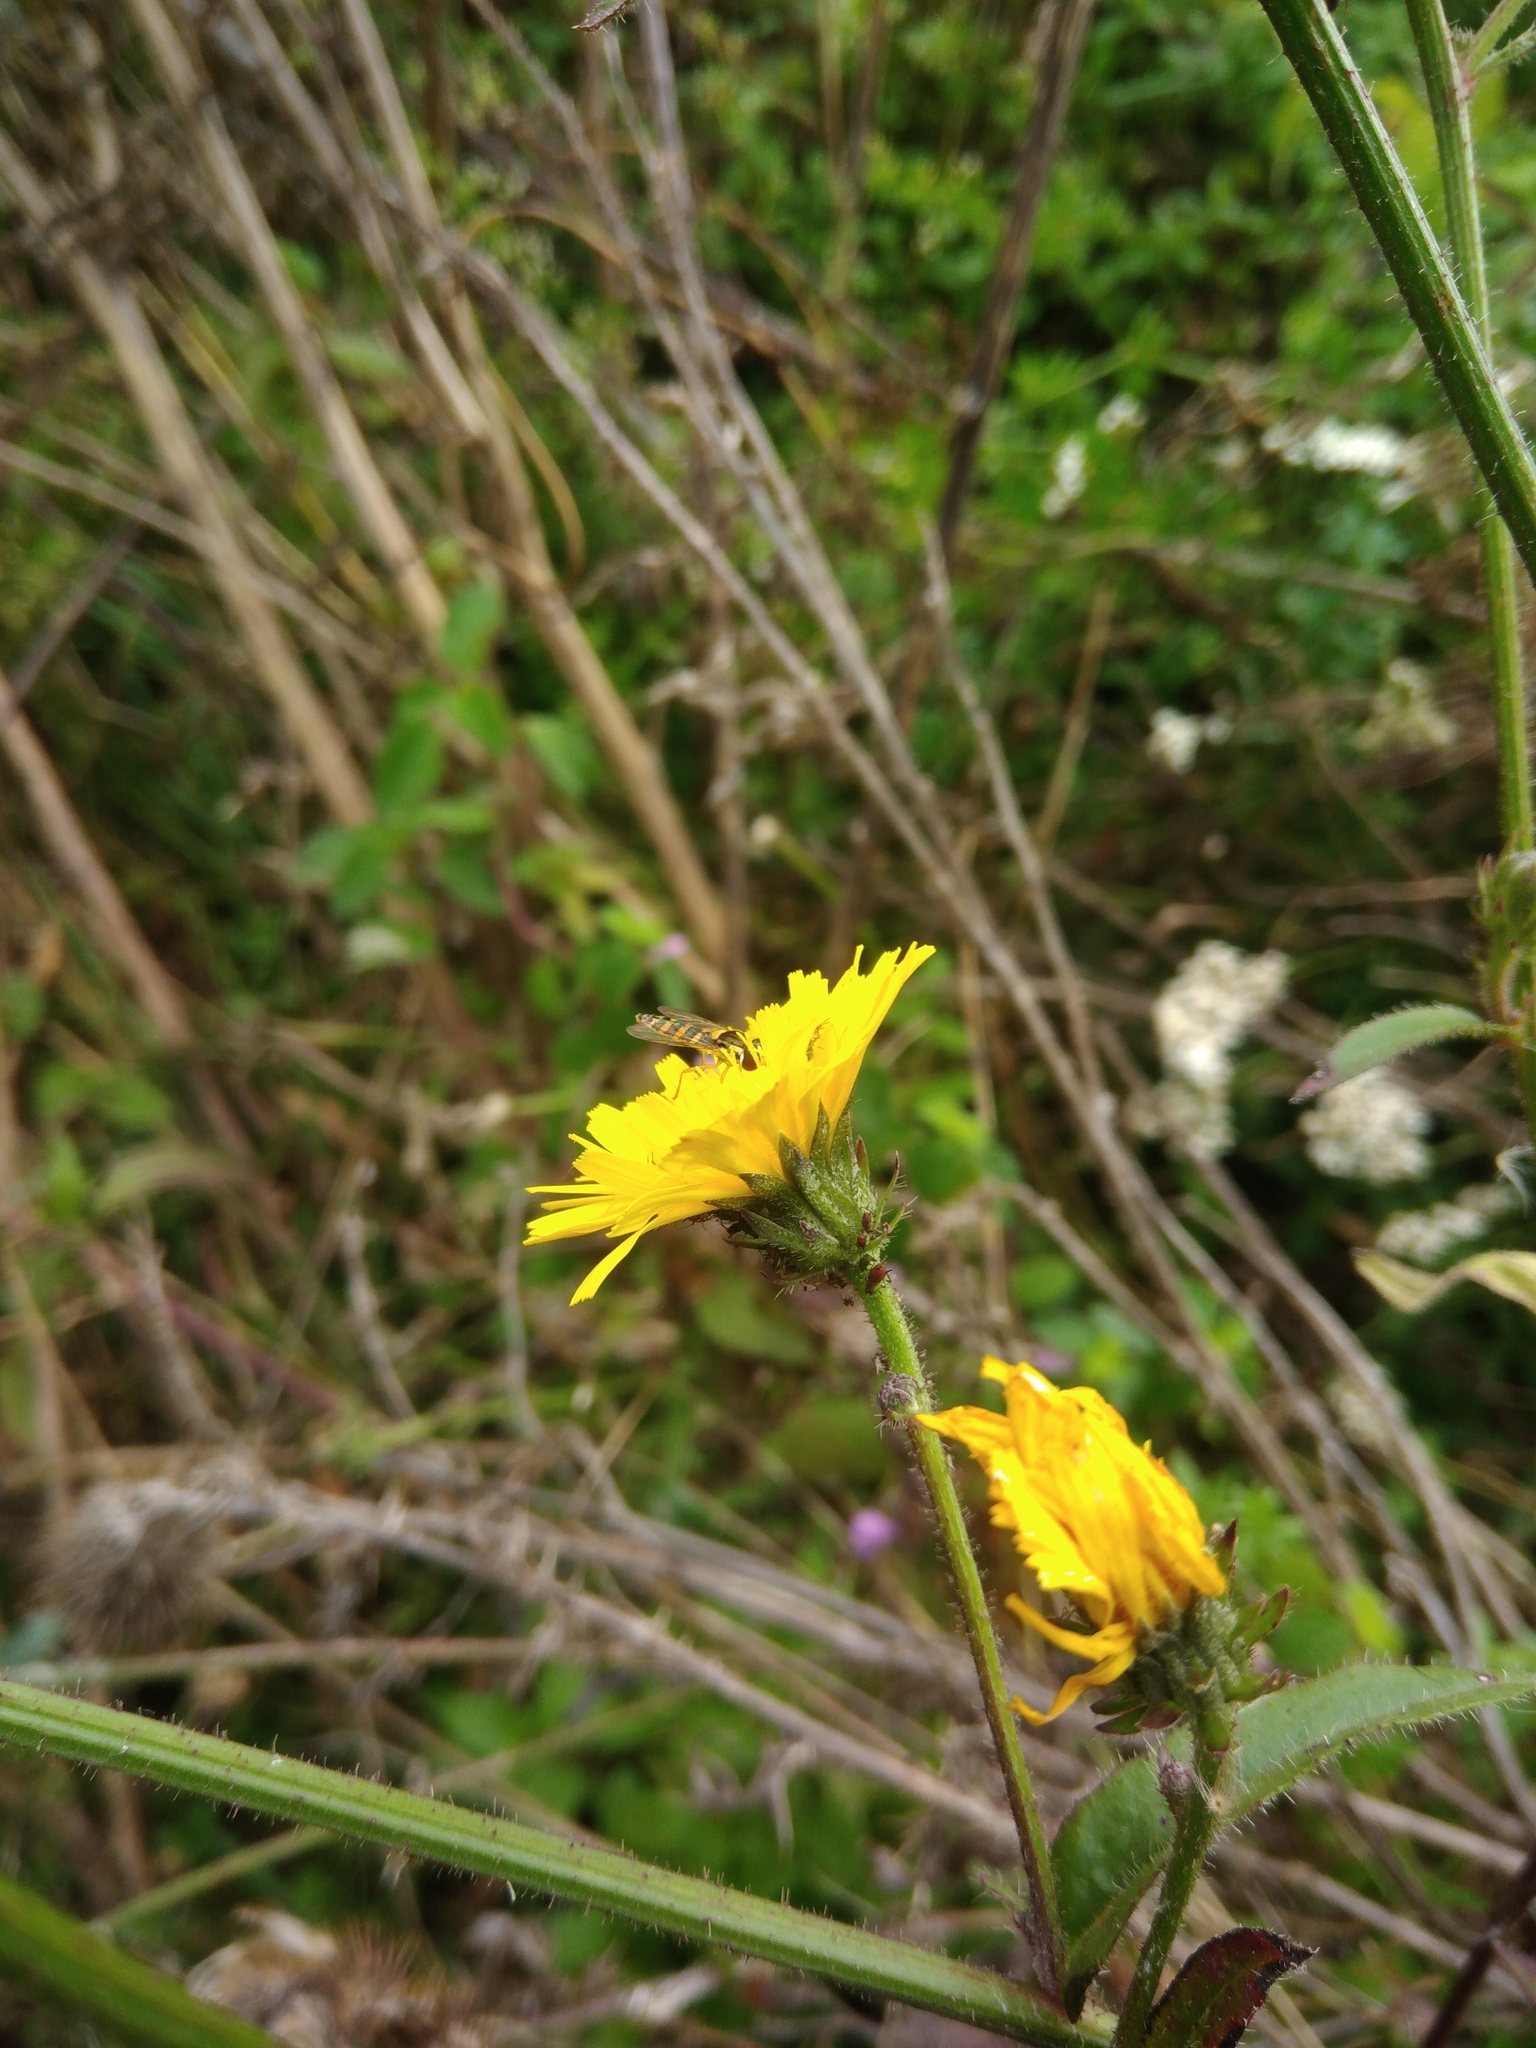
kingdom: Plantae
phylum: Tracheophyta
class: Magnoliopsida
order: Asterales
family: Asteraceae
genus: Picris
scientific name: Picris hieracioides
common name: Hawkweed oxtongue
